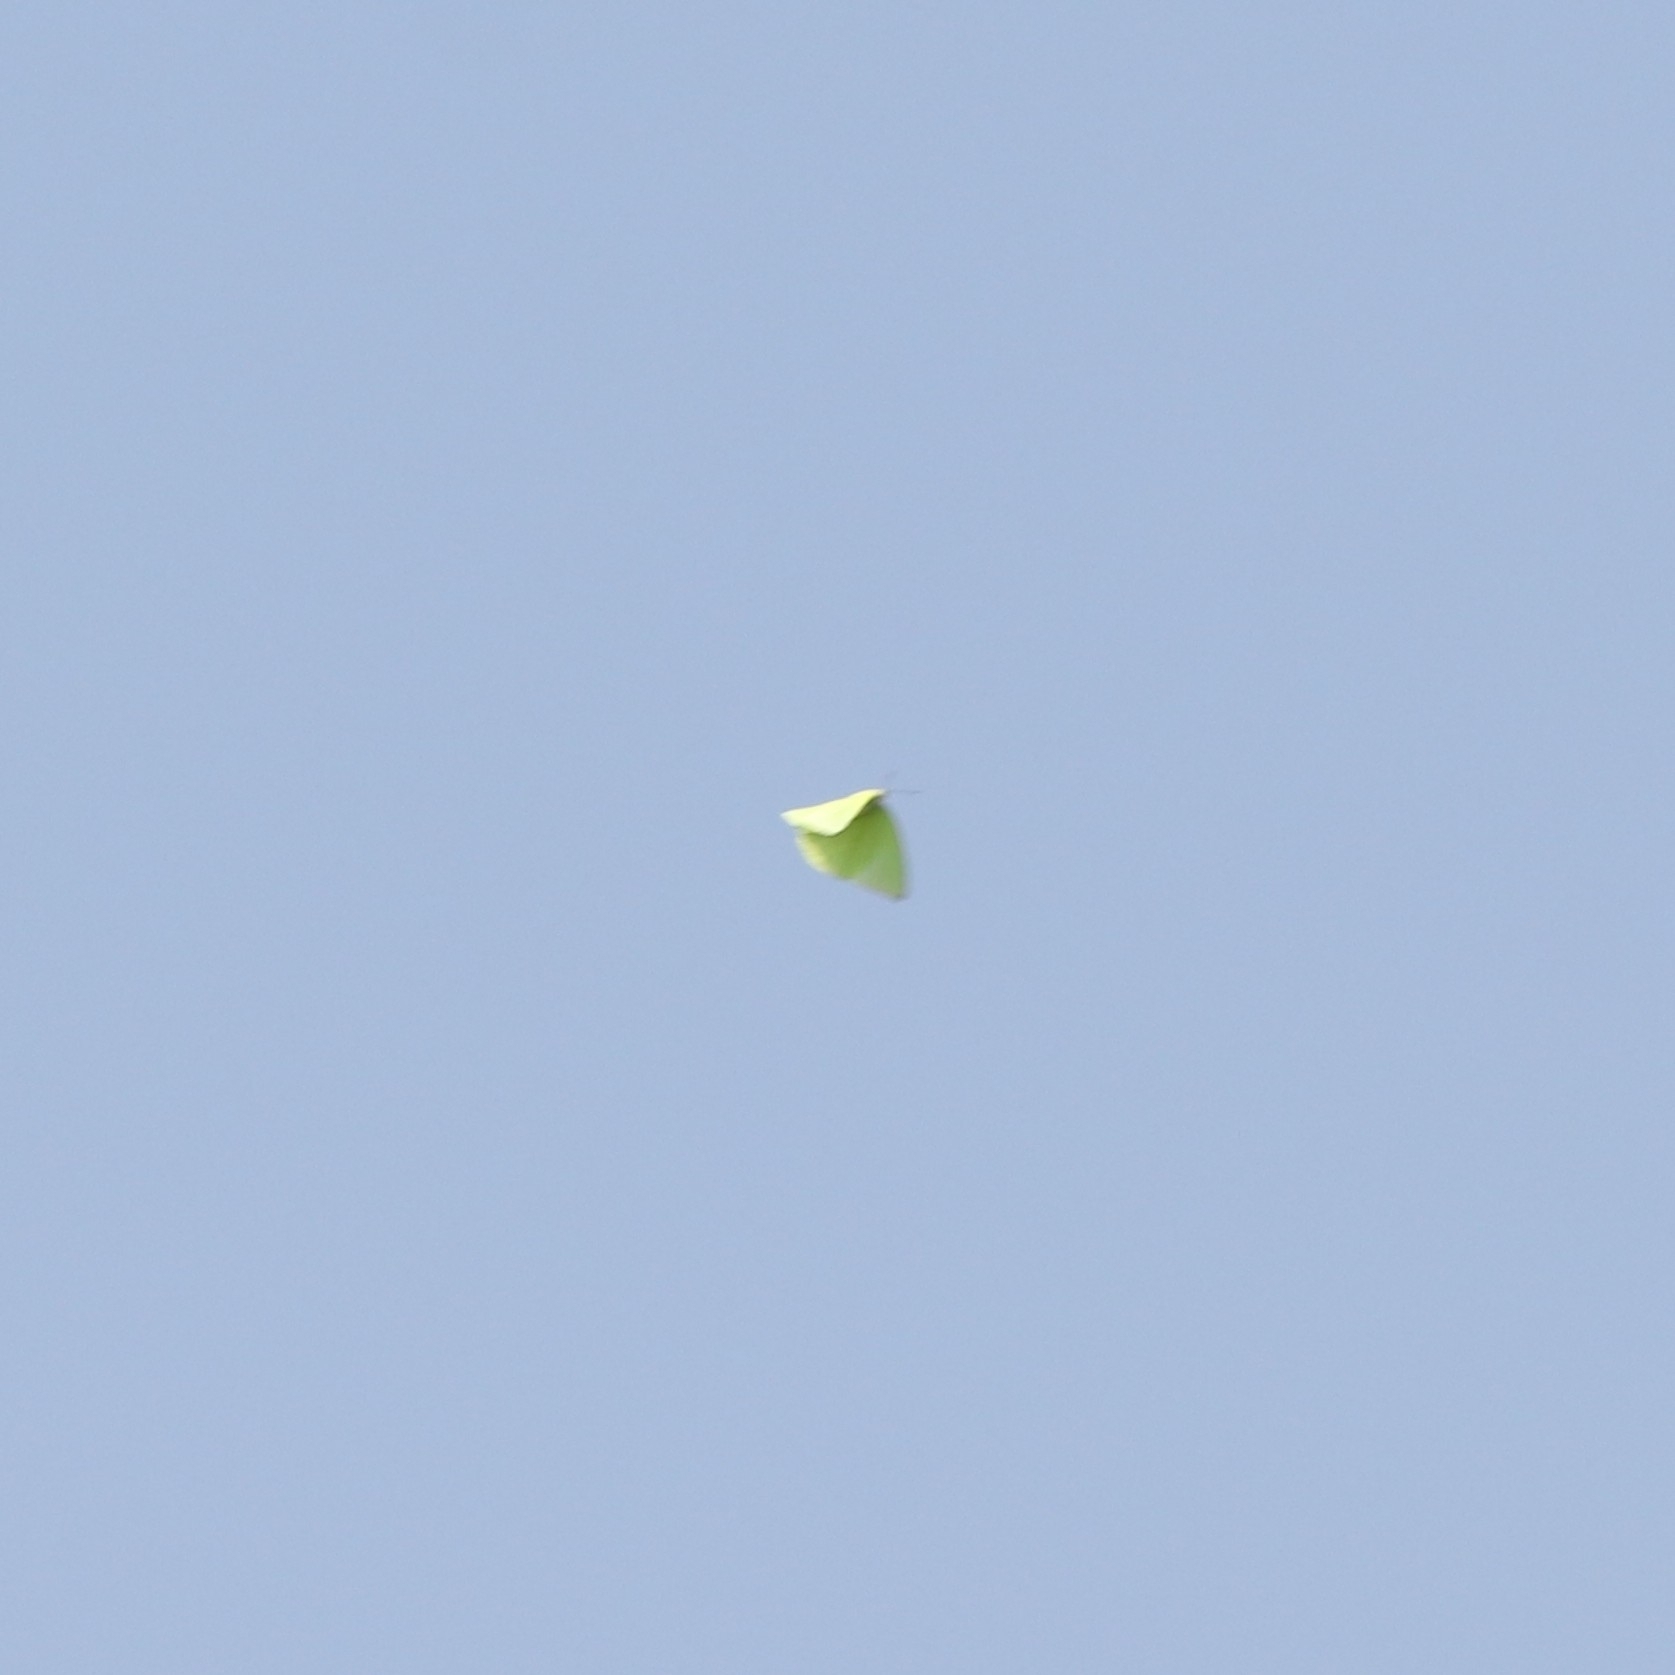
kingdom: Animalia
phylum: Arthropoda
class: Insecta
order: Lepidoptera
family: Pieridae
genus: Catopsilia
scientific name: Catopsilia pomona
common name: Common emigrant
